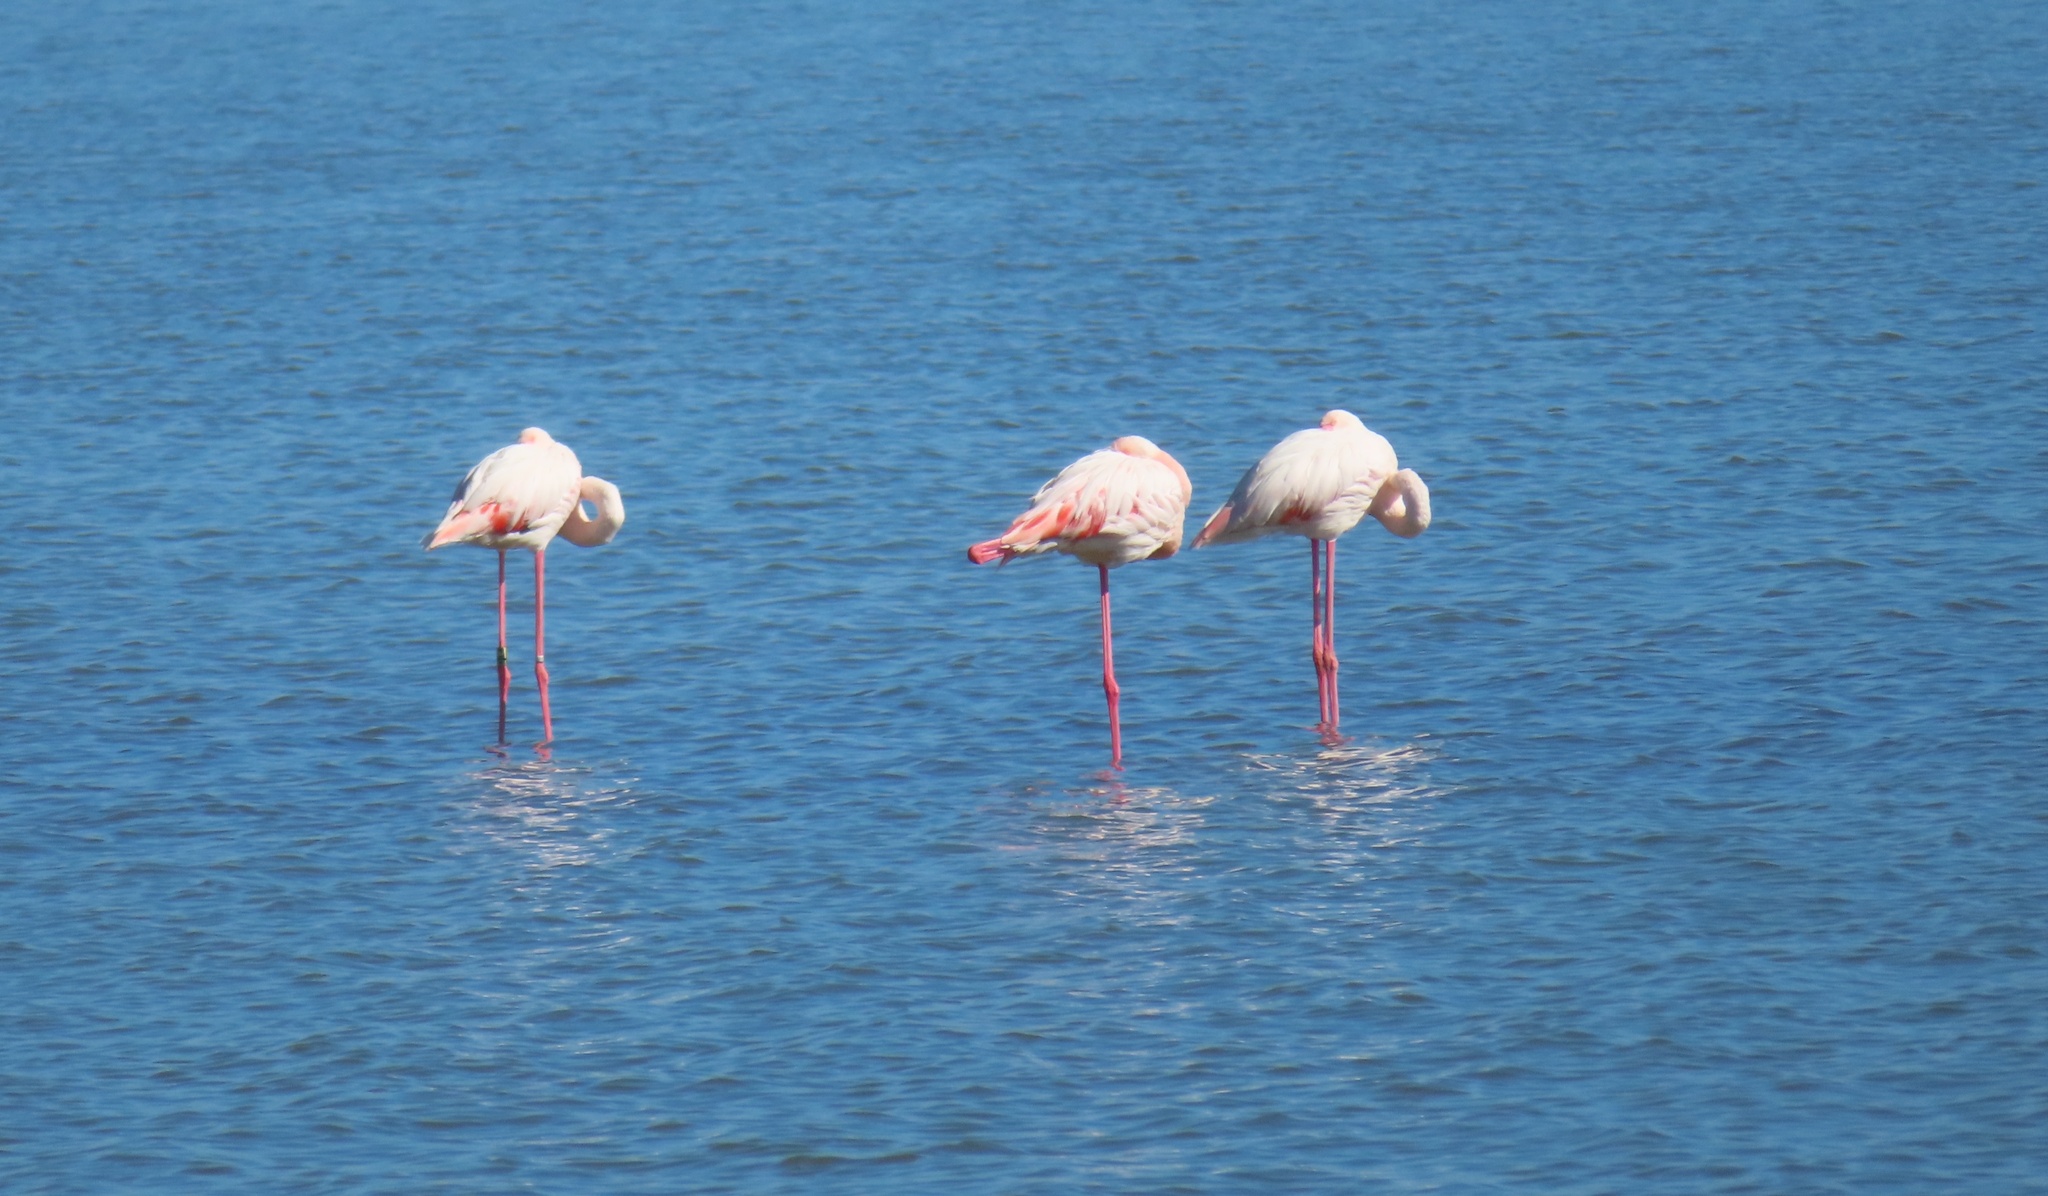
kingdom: Animalia
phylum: Chordata
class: Aves
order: Phoenicopteriformes
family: Phoenicopteridae
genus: Phoenicopterus
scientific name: Phoenicopterus roseus
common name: Greater flamingo
